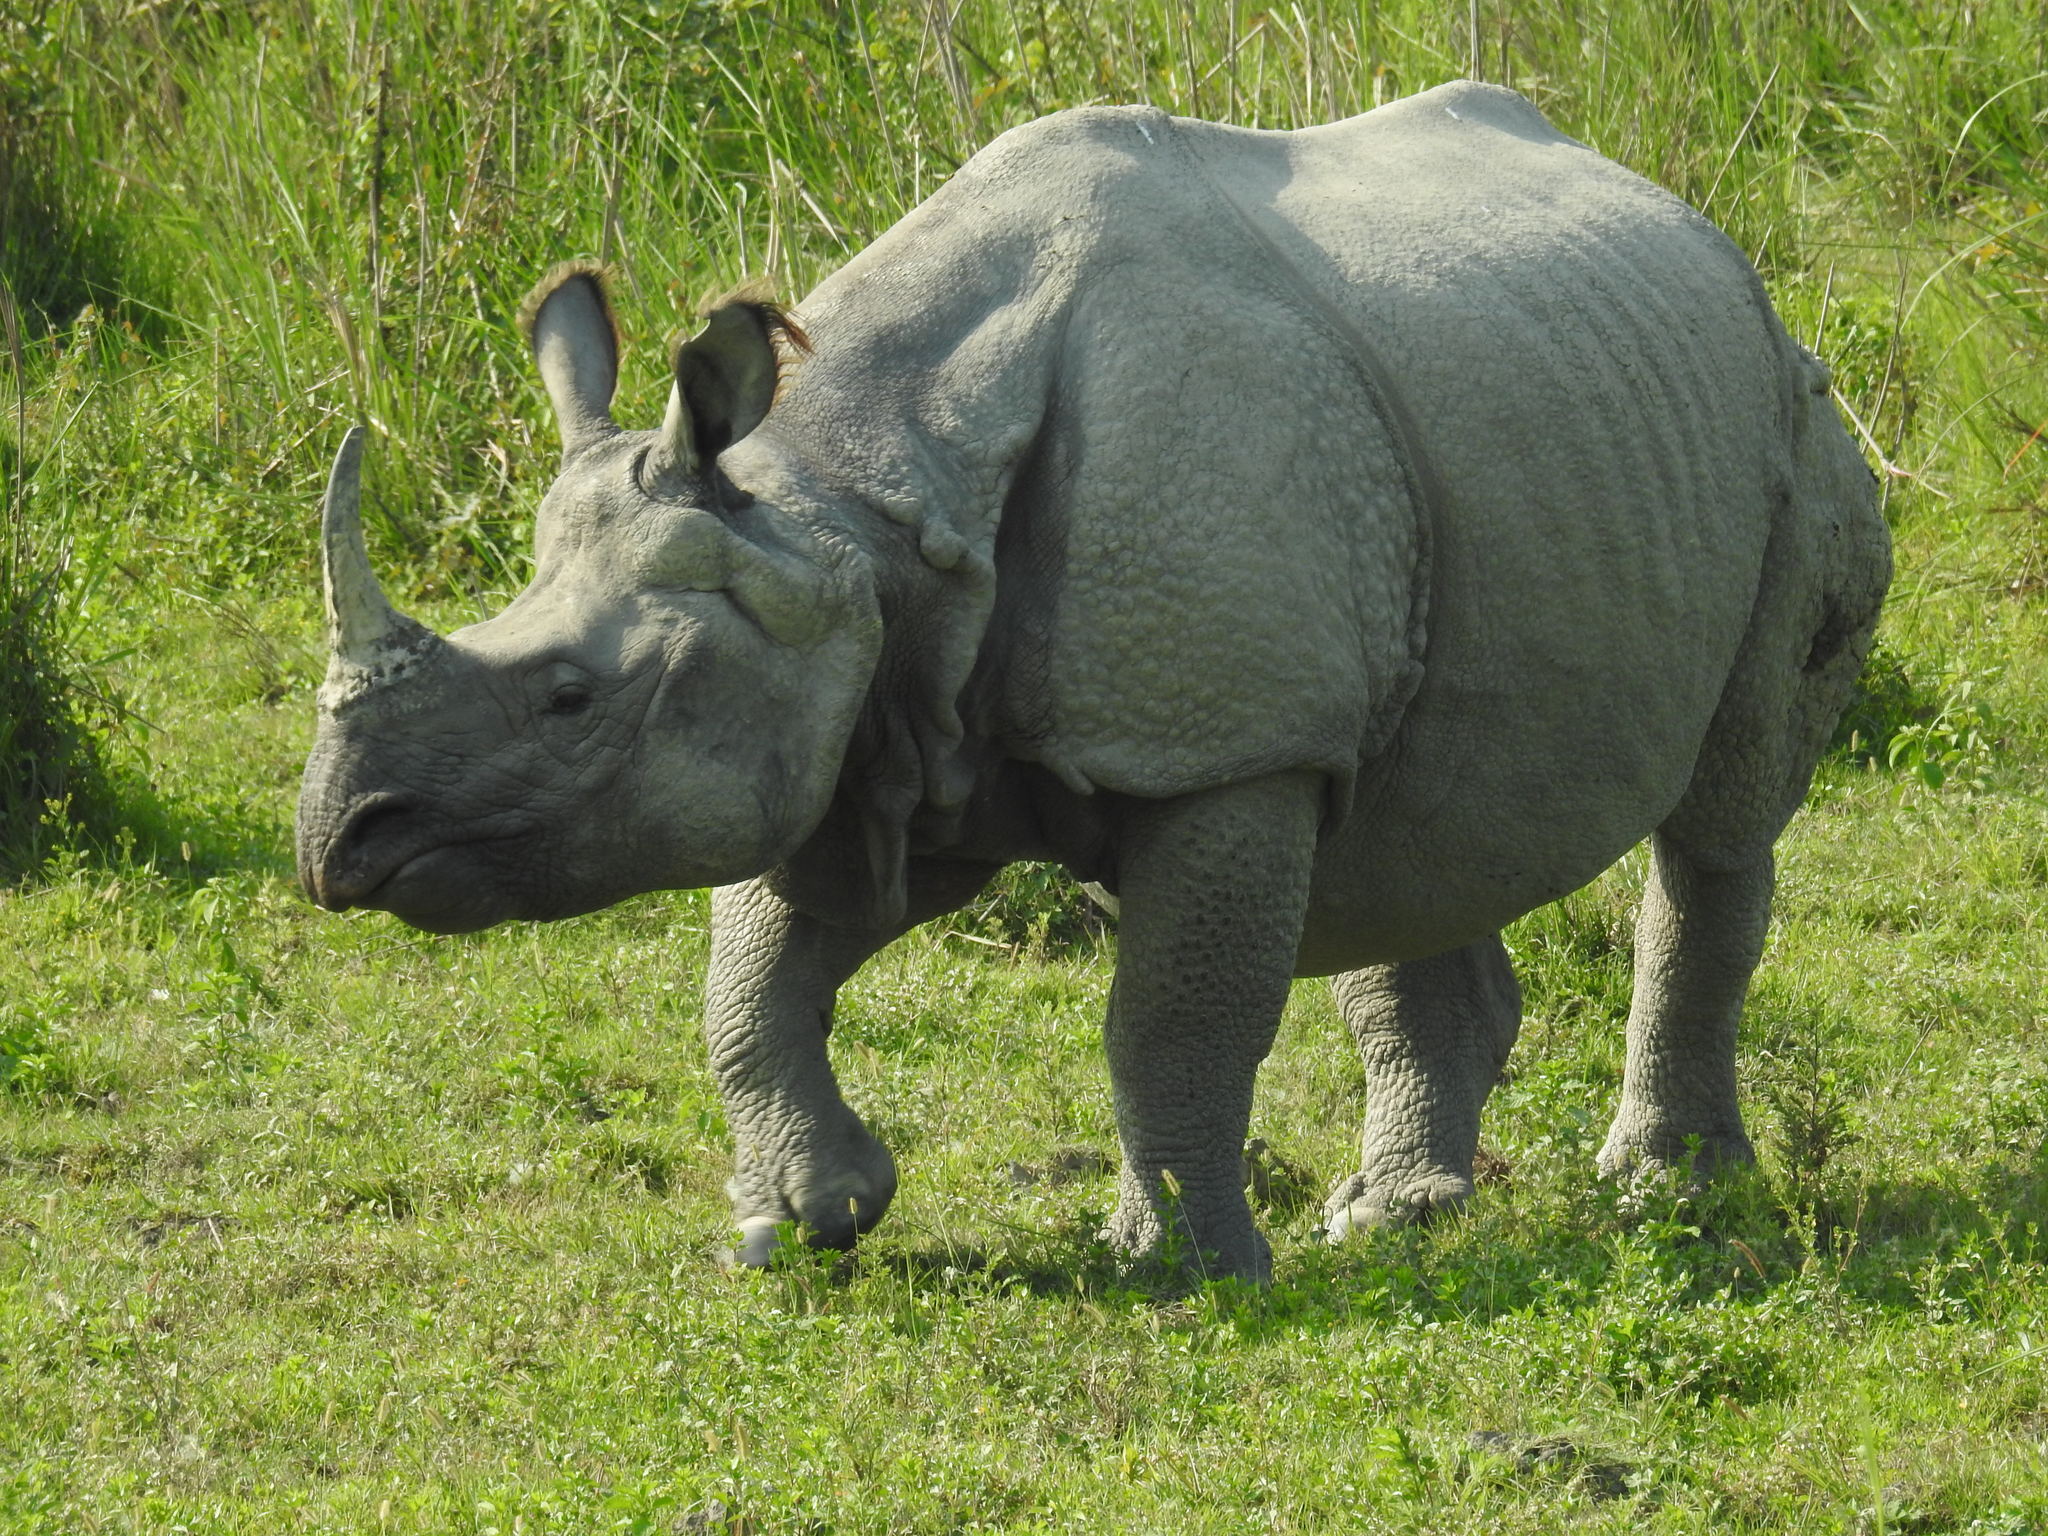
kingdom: Animalia
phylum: Chordata
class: Mammalia
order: Perissodactyla
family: Rhinocerotidae
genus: Rhinoceros
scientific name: Rhinoceros unicornis
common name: Indian rhinoceros
